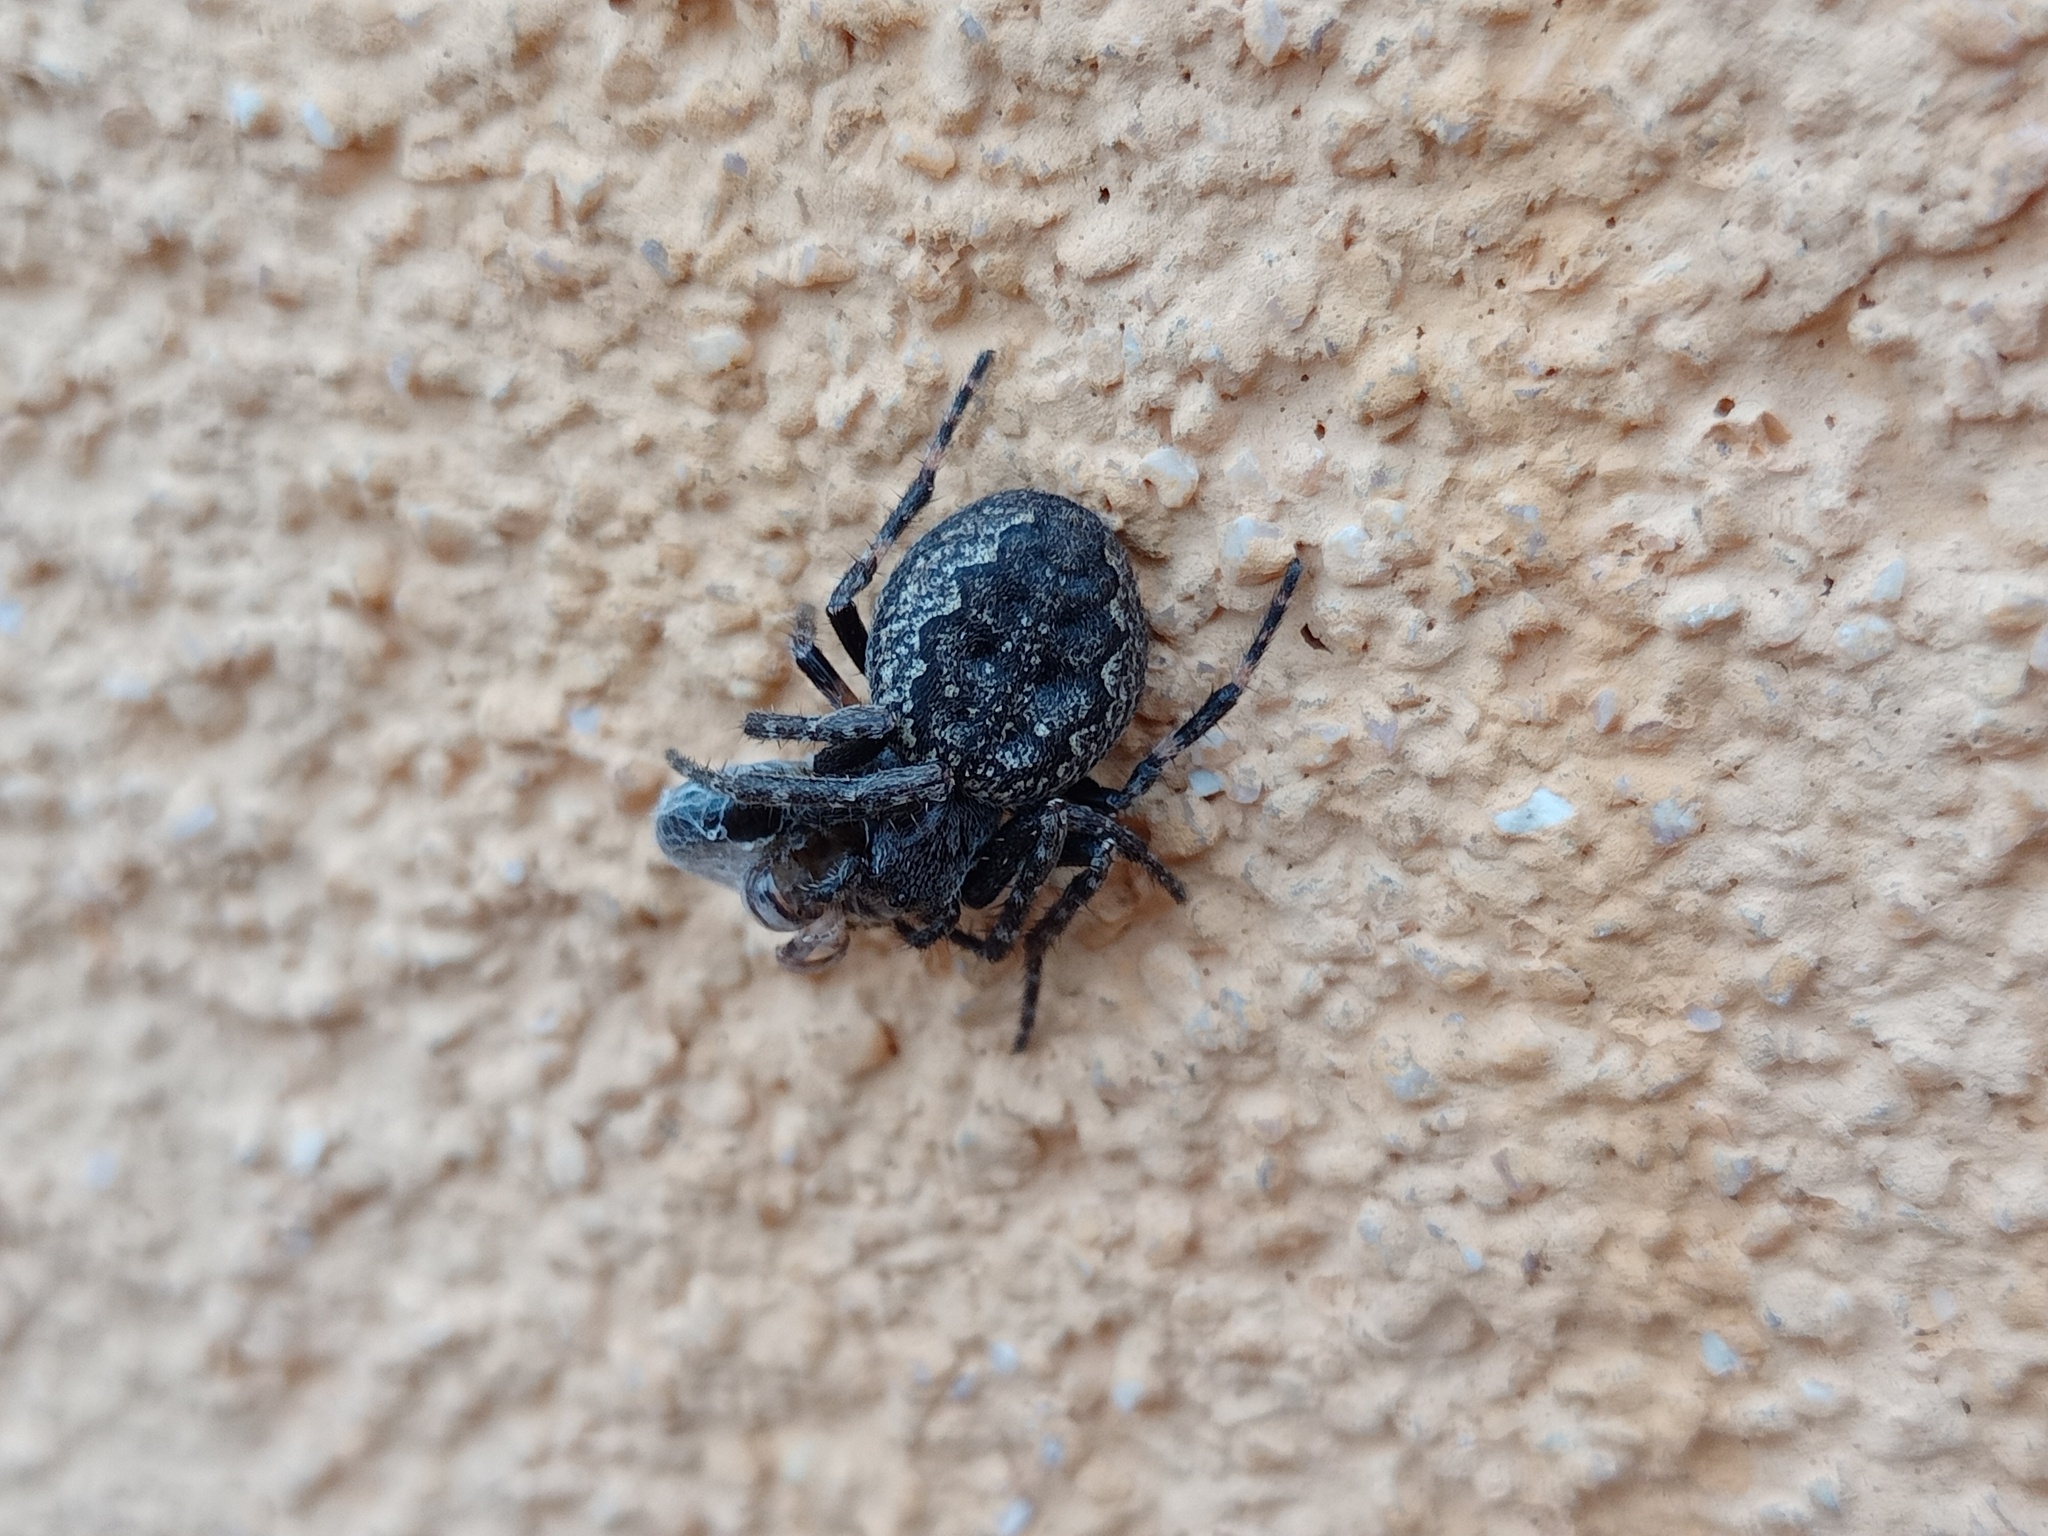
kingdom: Animalia
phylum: Arthropoda
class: Arachnida
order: Araneae
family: Araneidae
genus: Nuctenea
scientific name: Nuctenea umbratica
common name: Toad spider
